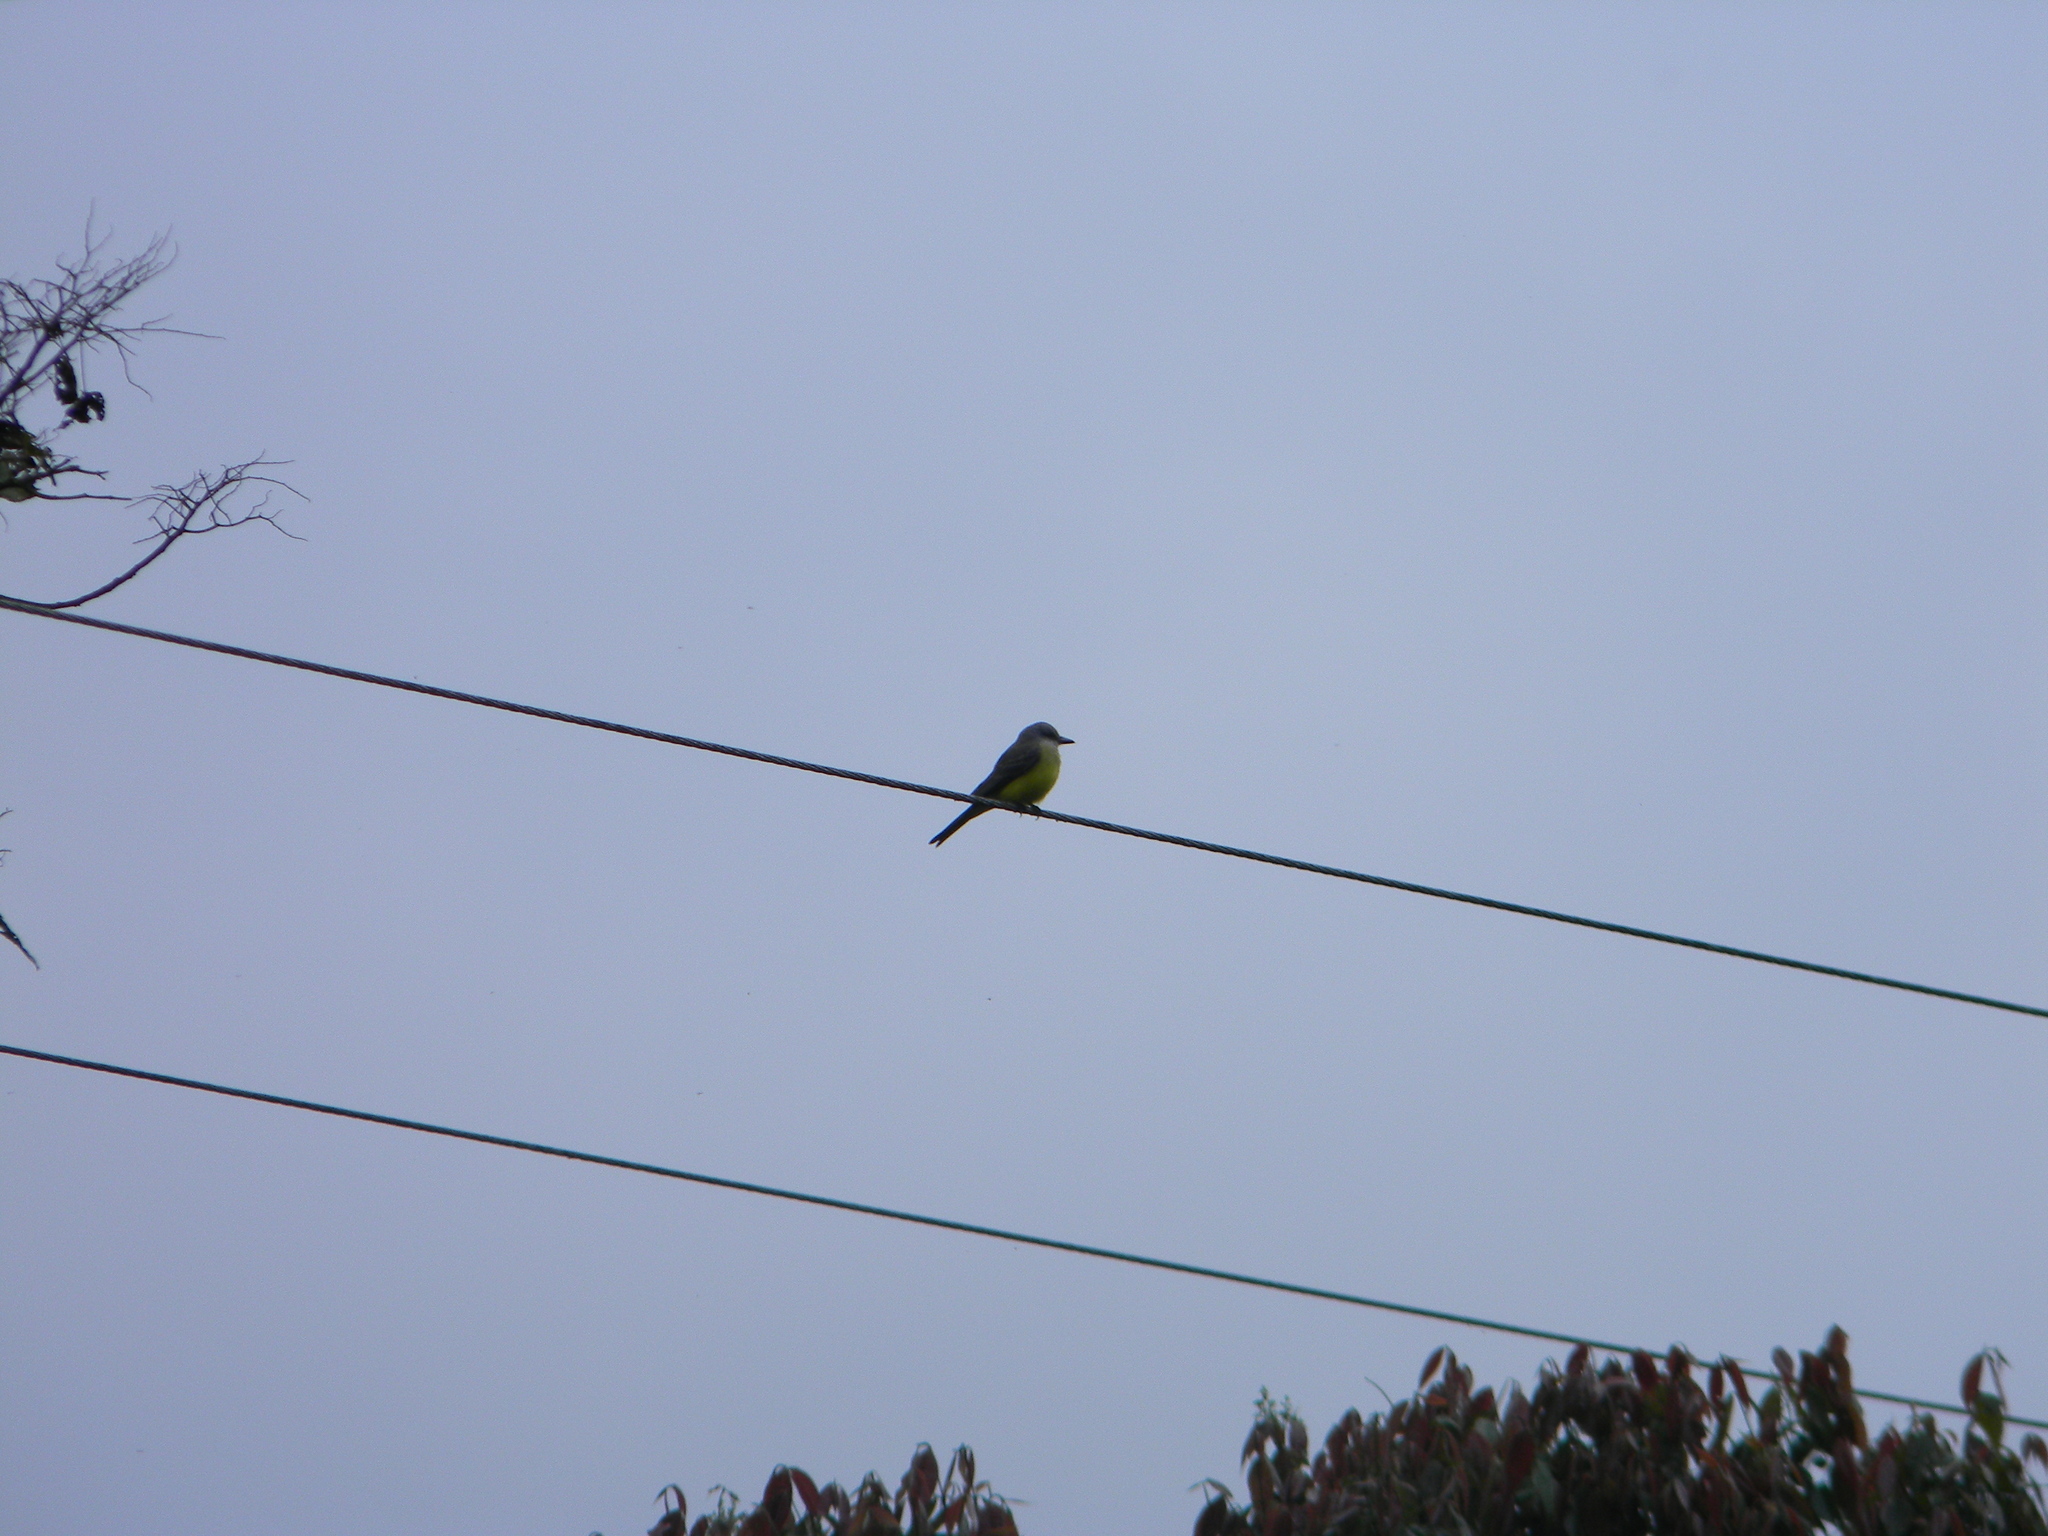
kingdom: Animalia
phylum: Chordata
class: Aves
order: Passeriformes
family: Tyrannidae
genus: Tyrannus
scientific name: Tyrannus melancholicus
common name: Tropical kingbird
